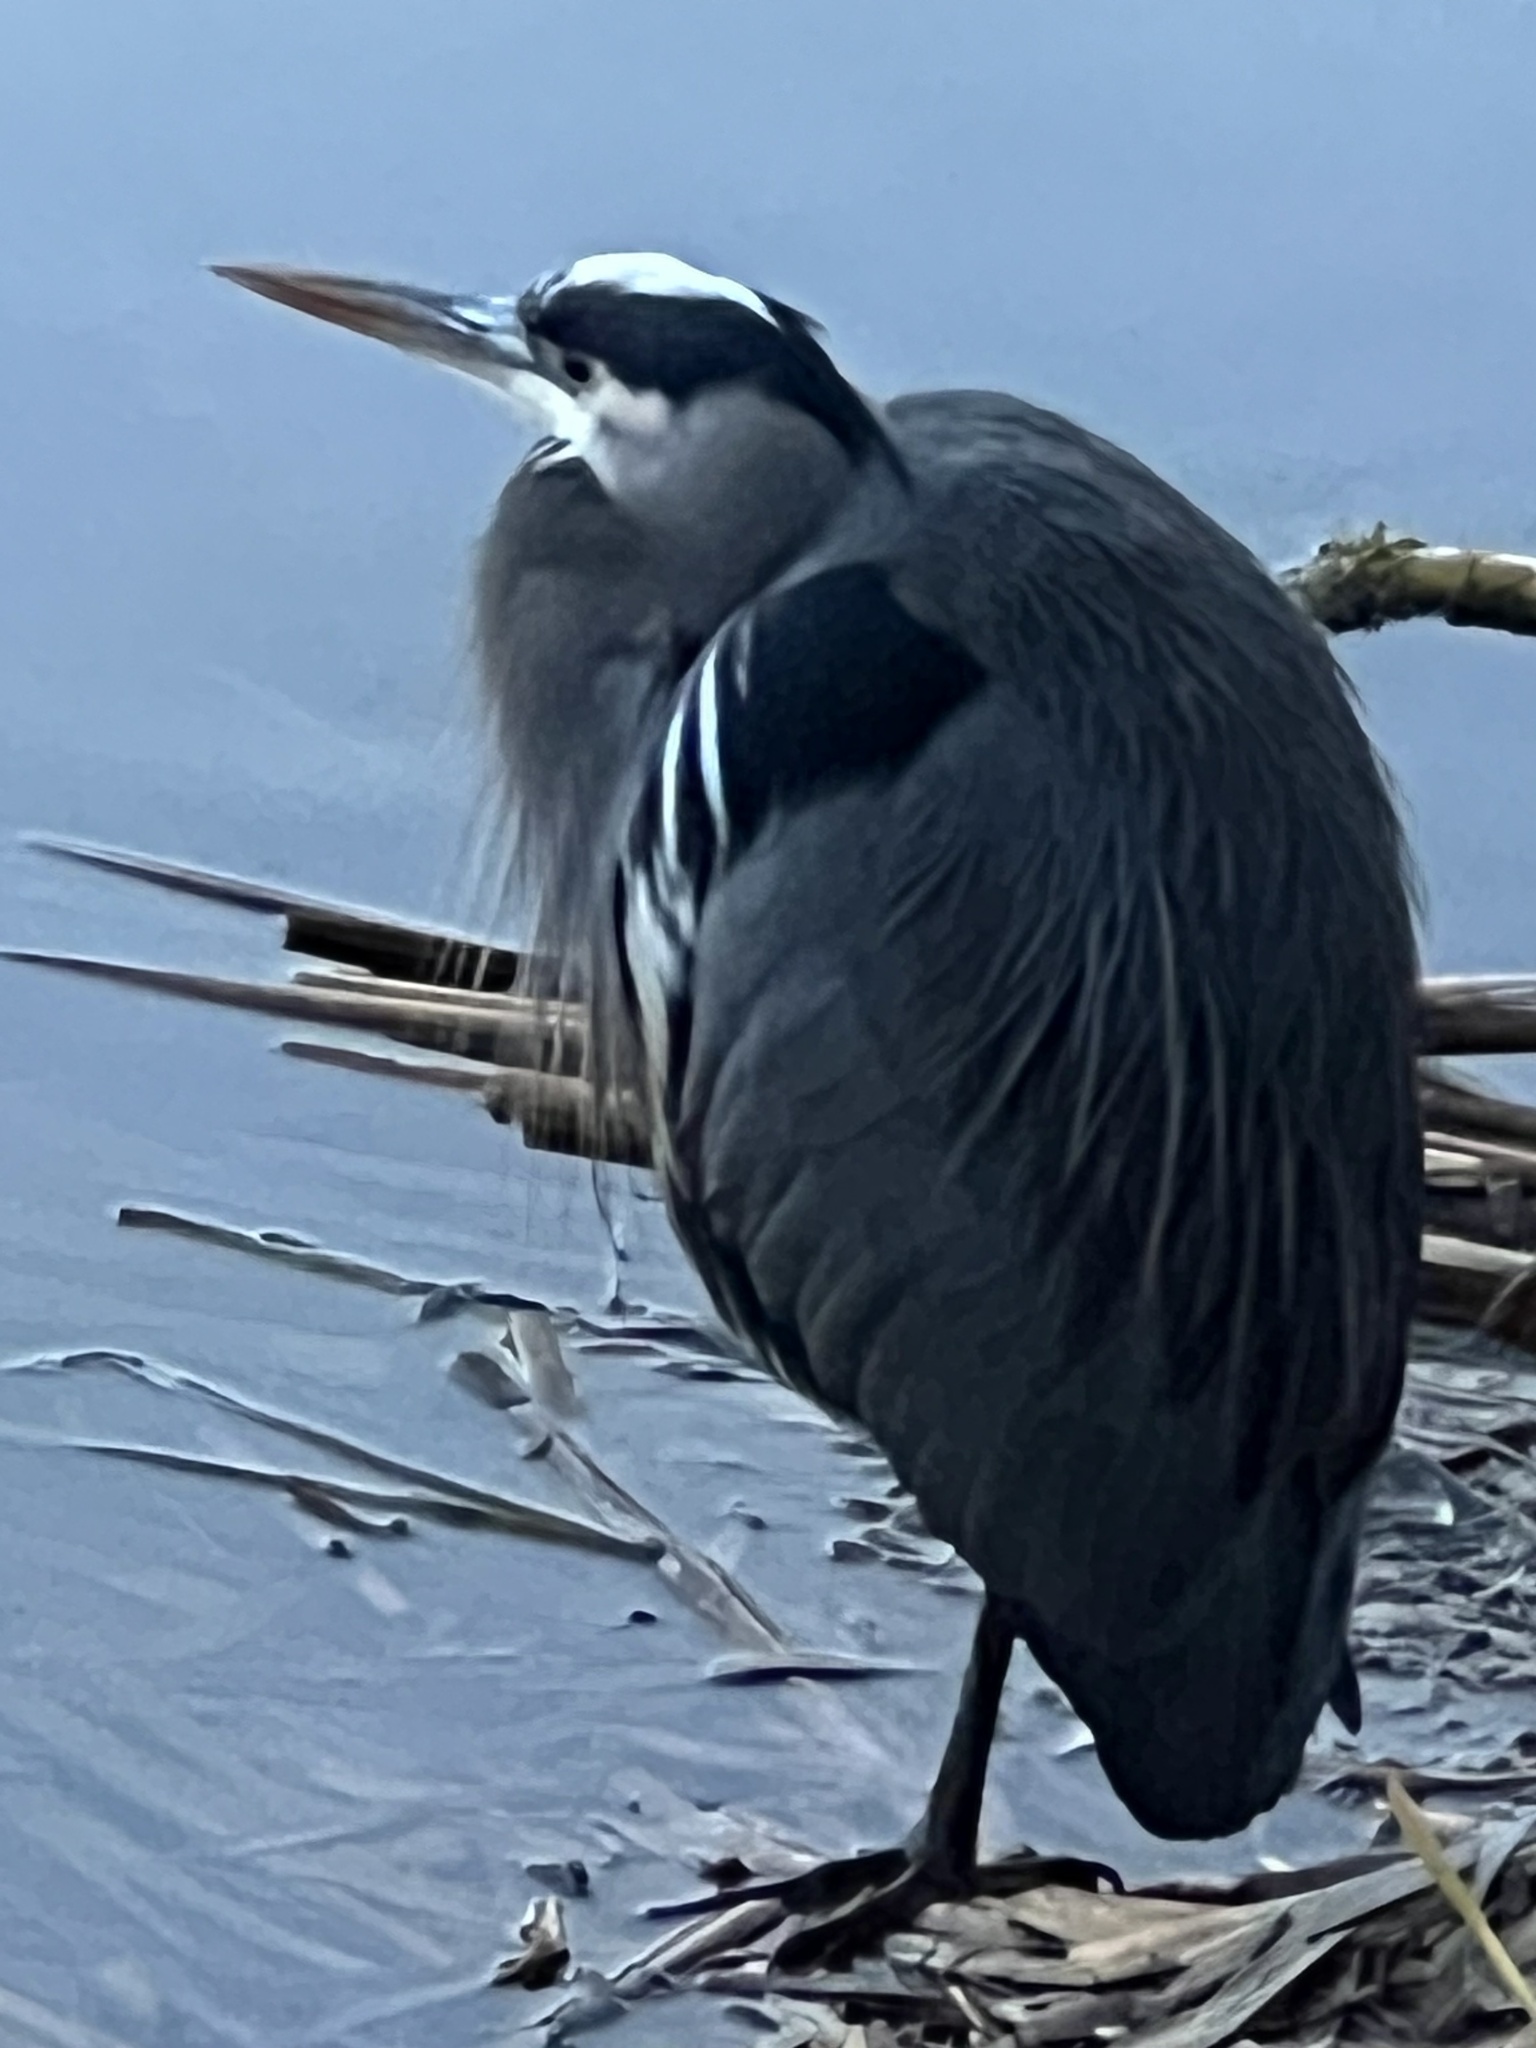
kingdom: Animalia
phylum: Chordata
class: Aves
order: Pelecaniformes
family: Ardeidae
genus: Ardea
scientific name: Ardea herodias
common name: Great blue heron
